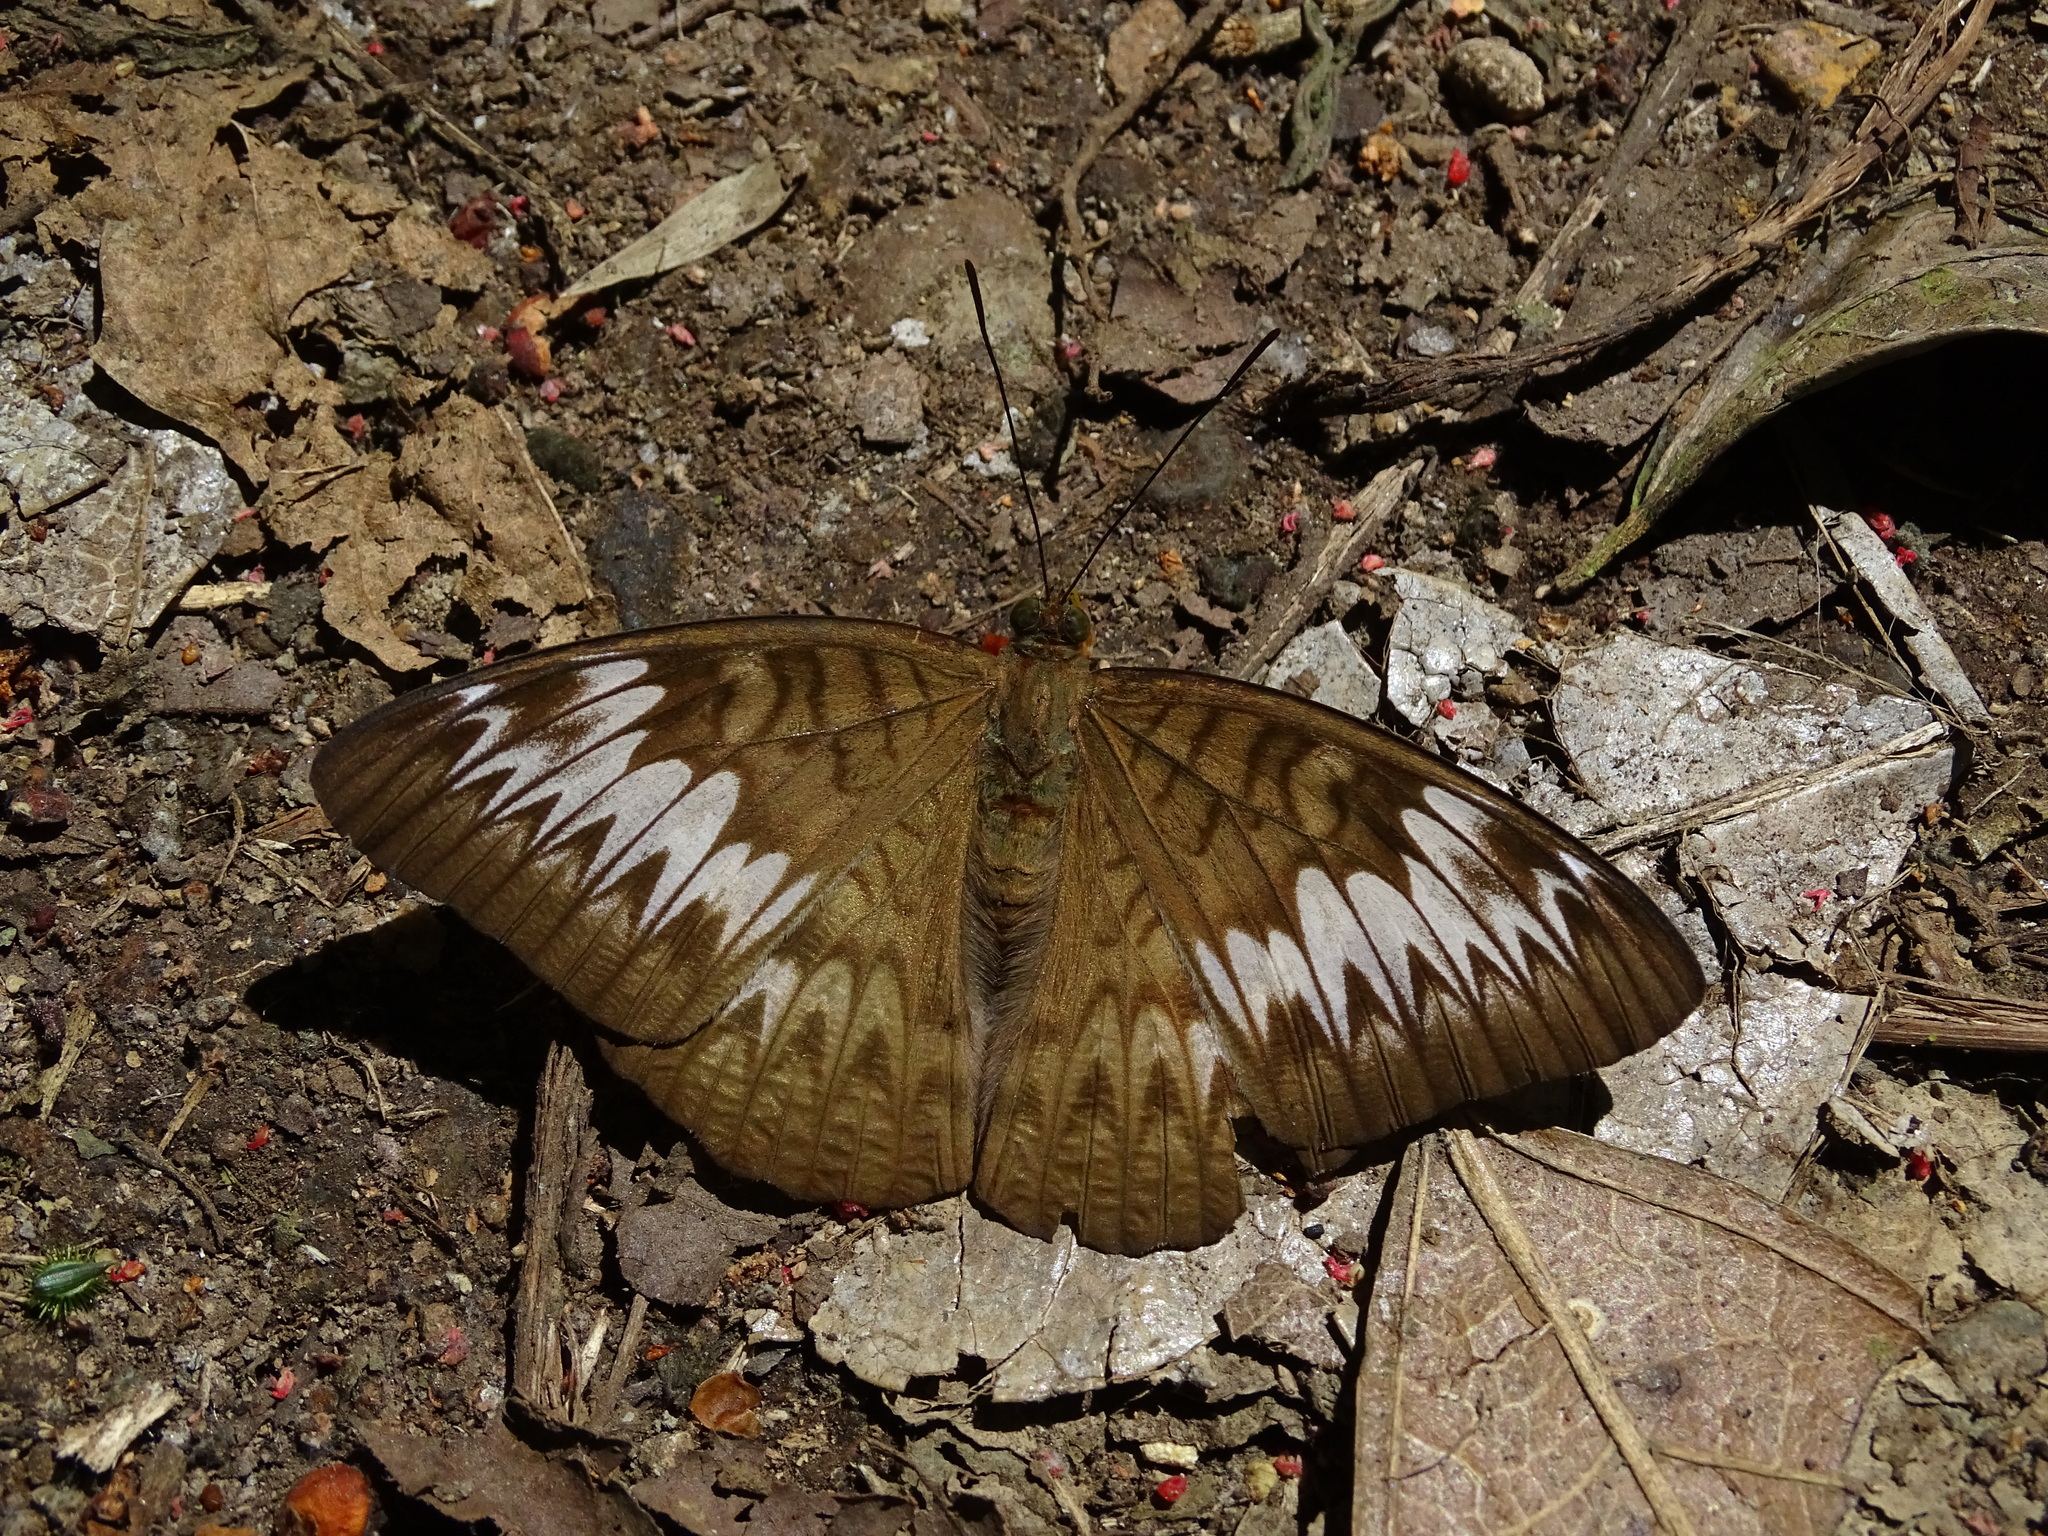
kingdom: Animalia
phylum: Arthropoda
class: Insecta
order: Lepidoptera
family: Nymphalidae
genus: Tanaecia
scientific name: Tanaecia palguna
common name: Long-lined viscount
